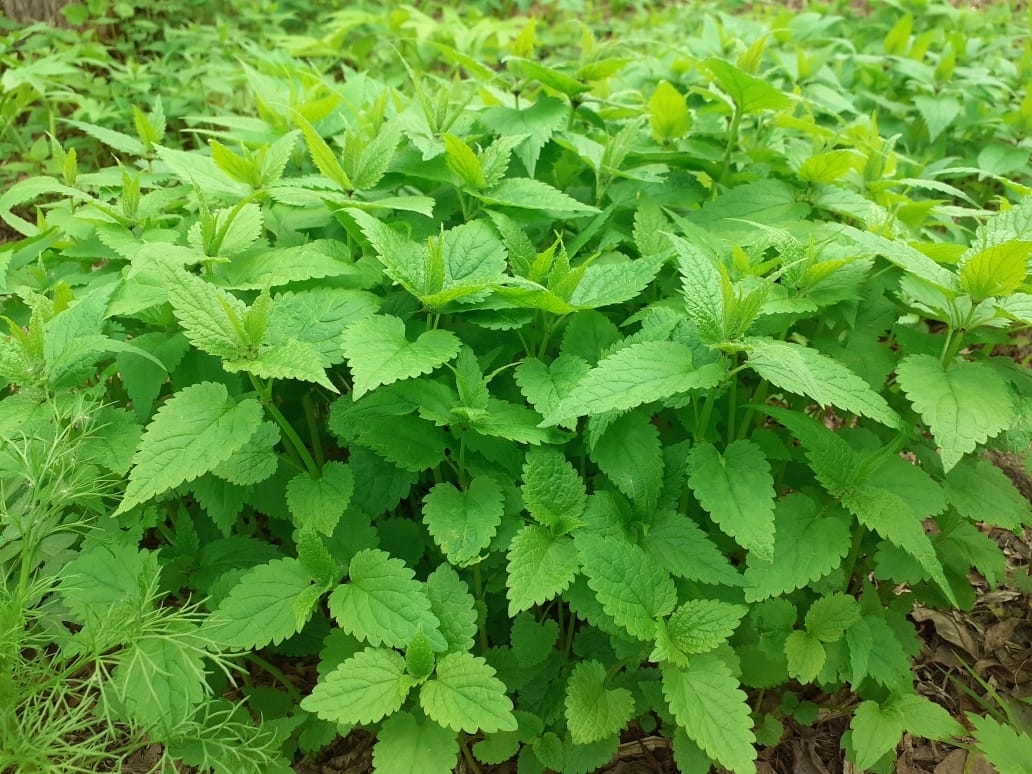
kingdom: Plantae
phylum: Tracheophyta
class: Magnoliopsida
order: Lamiales
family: Lamiaceae
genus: Lamium
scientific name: Lamium album
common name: White dead-nettle
